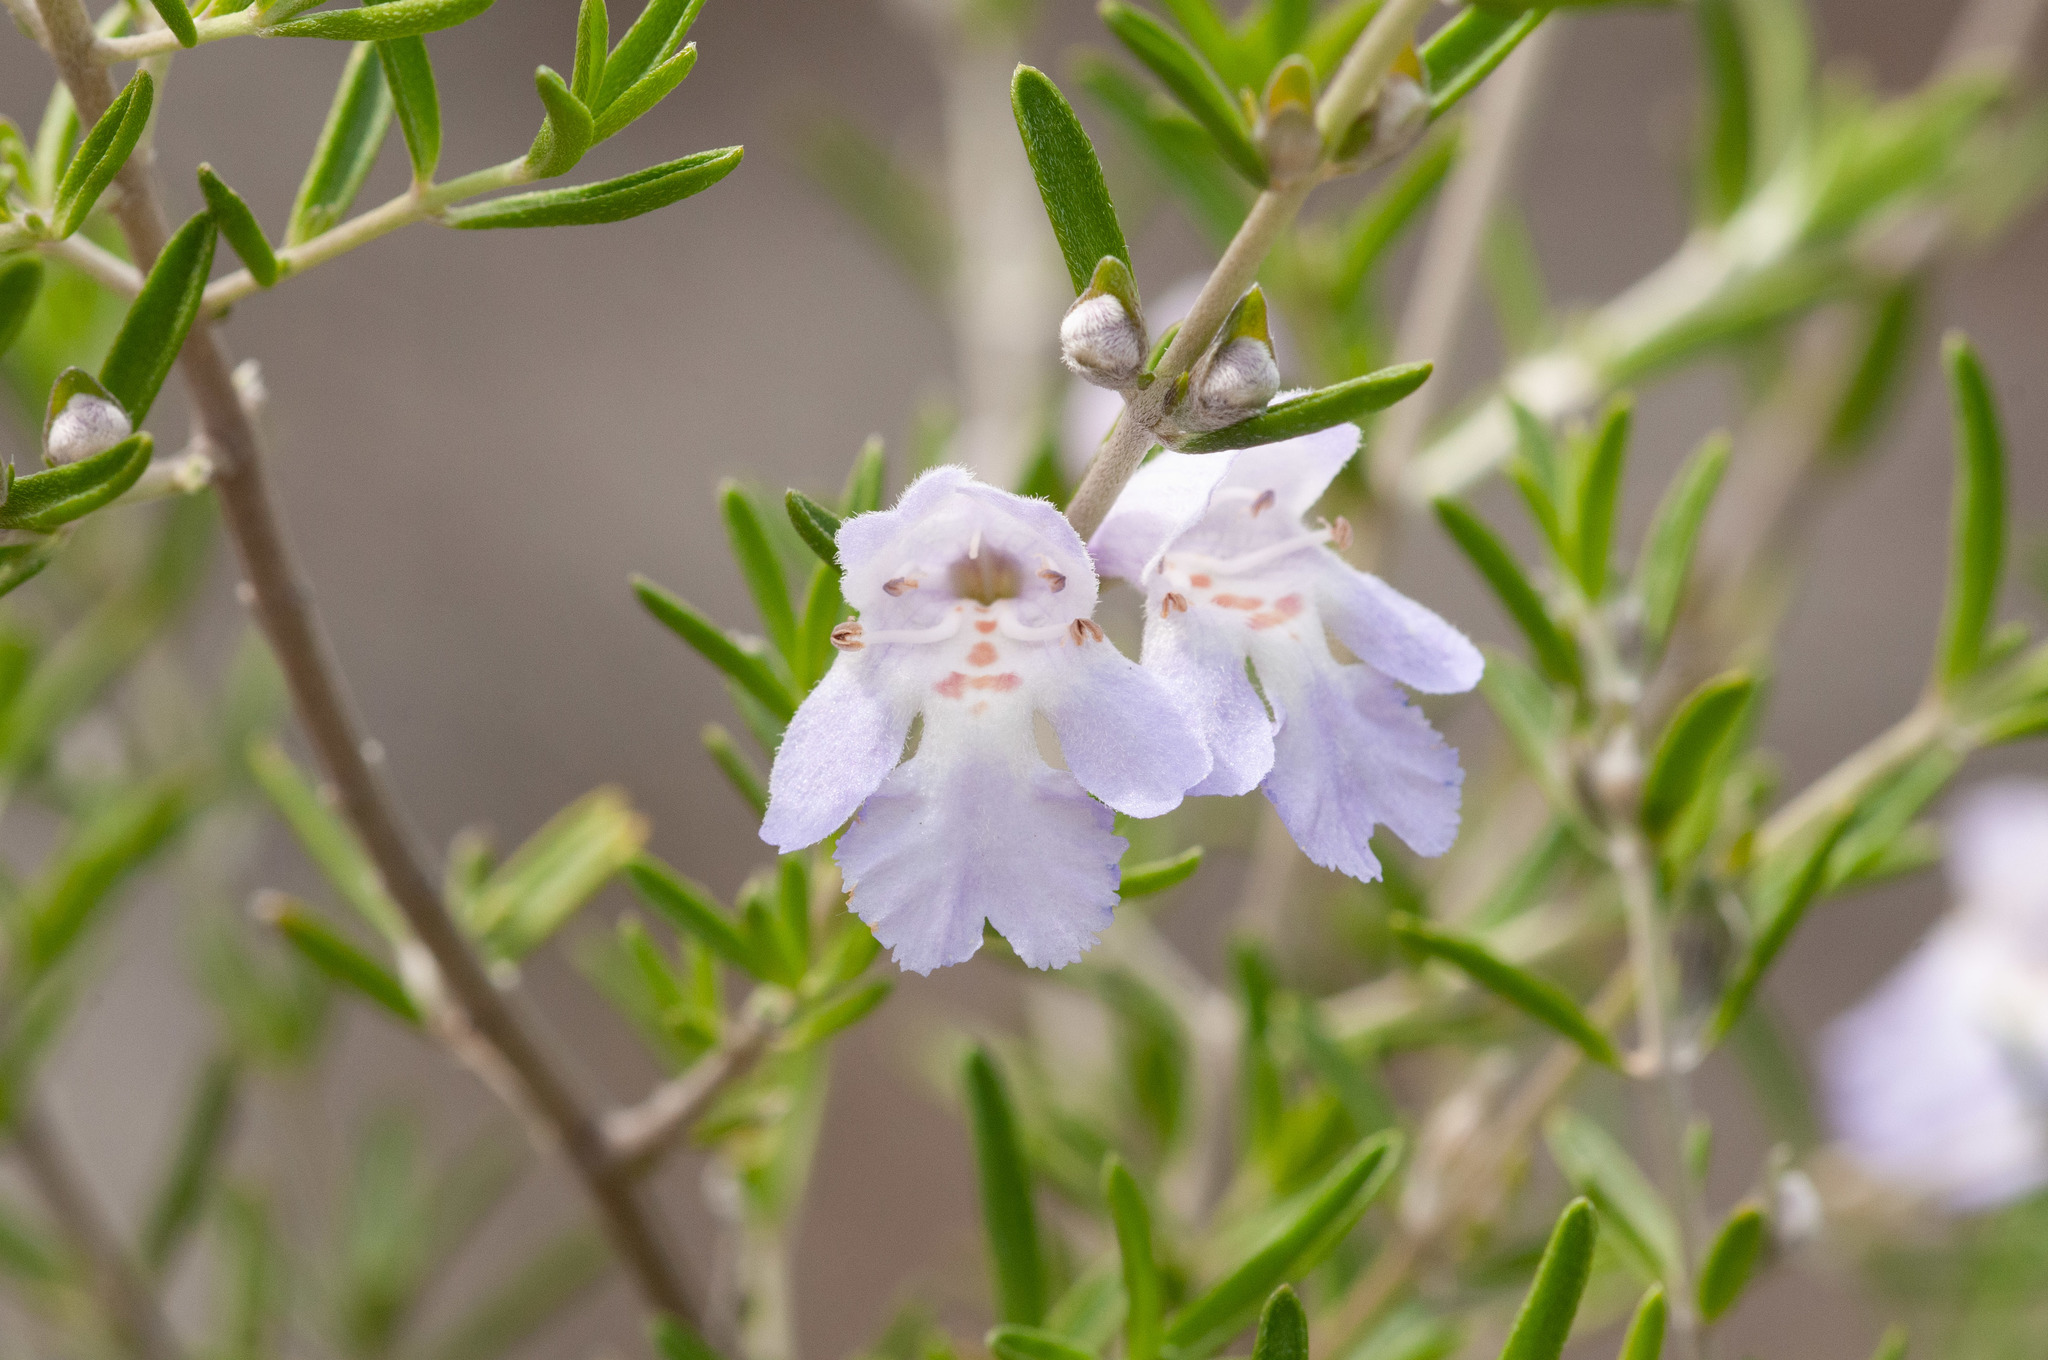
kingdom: Plantae
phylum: Tracheophyta
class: Magnoliopsida
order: Lamiales
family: Lamiaceae
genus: Prostanthera
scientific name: Prostanthera behriana
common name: Downy mintbush
